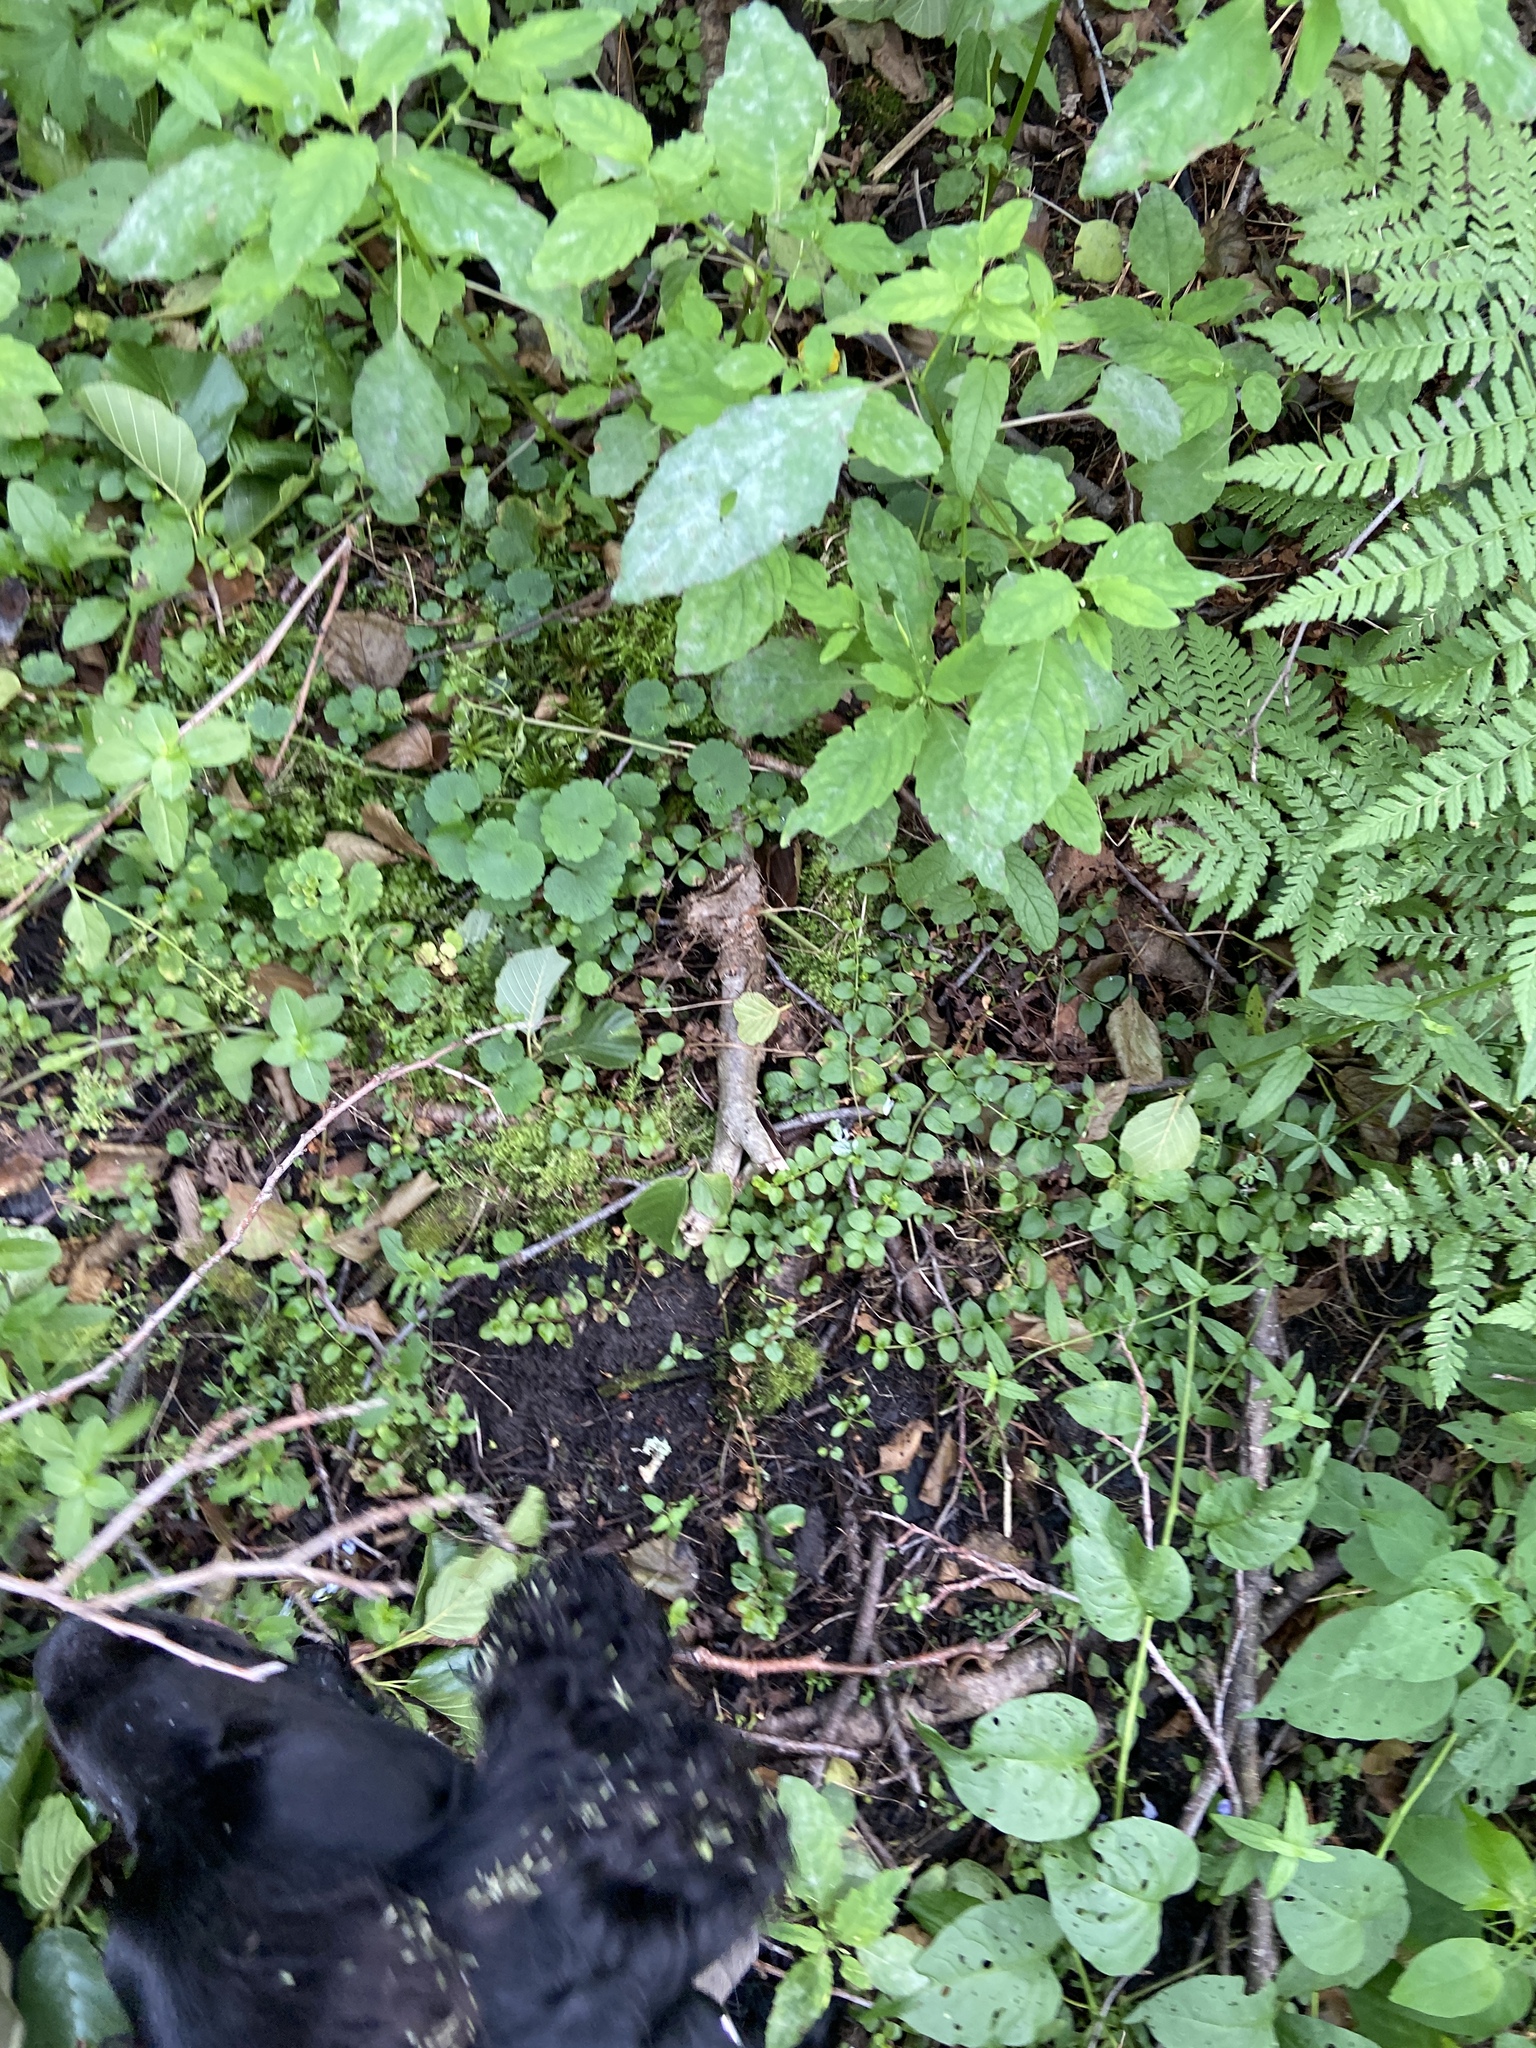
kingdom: Plantae
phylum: Tracheophyta
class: Magnoliopsida
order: Ericales
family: Primulaceae
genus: Lysimachia
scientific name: Lysimachia nummularia
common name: Moneywort
